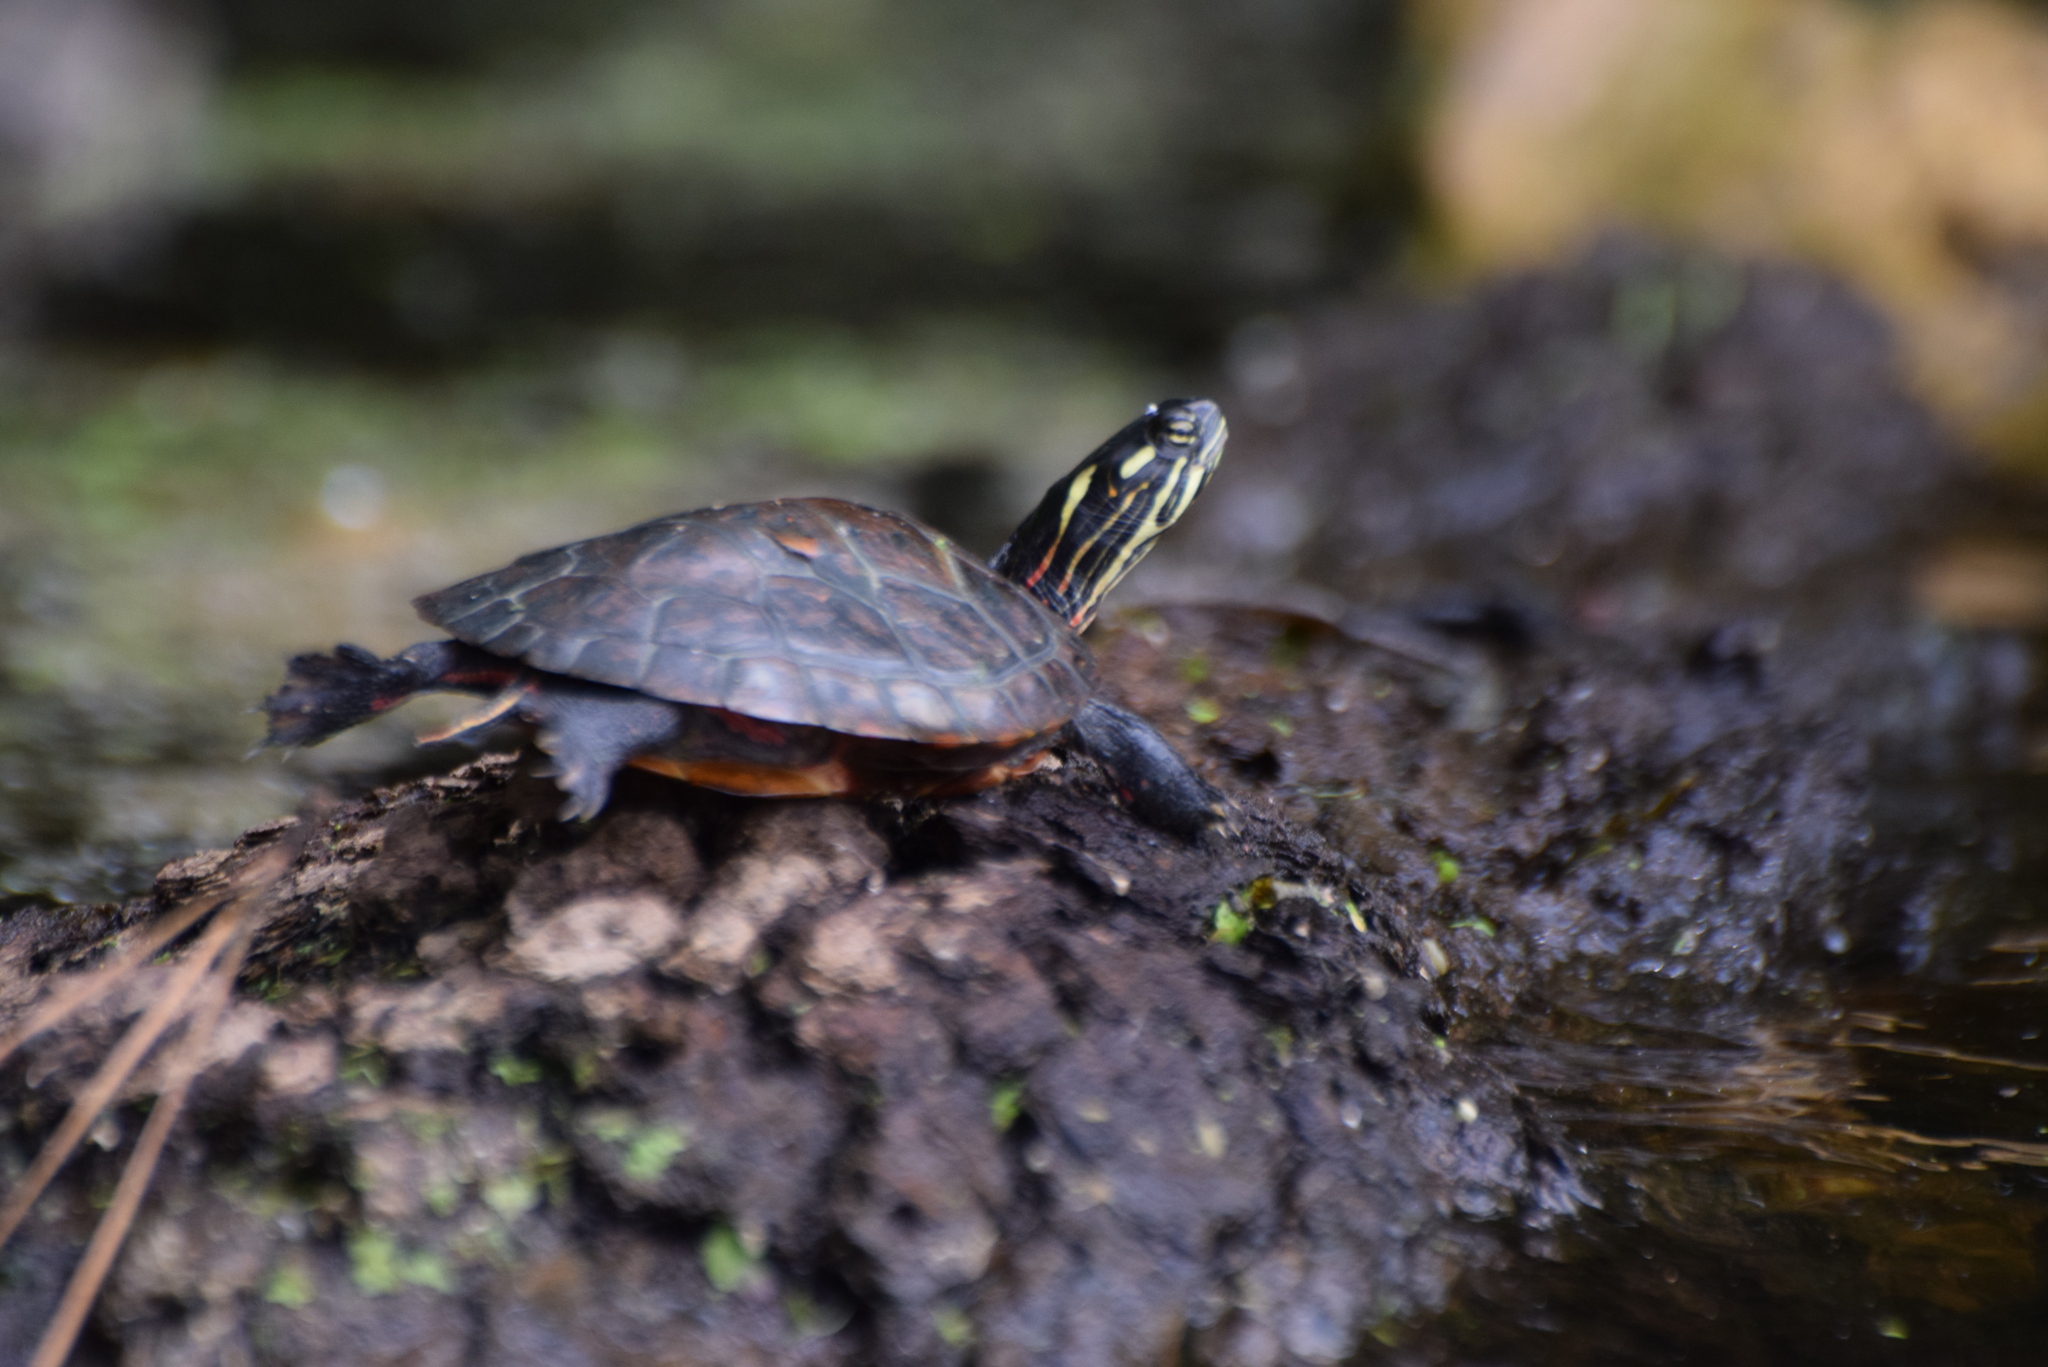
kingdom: Animalia
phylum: Chordata
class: Testudines
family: Emydidae
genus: Chrysemys
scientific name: Chrysemys picta
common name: Painted turtle
